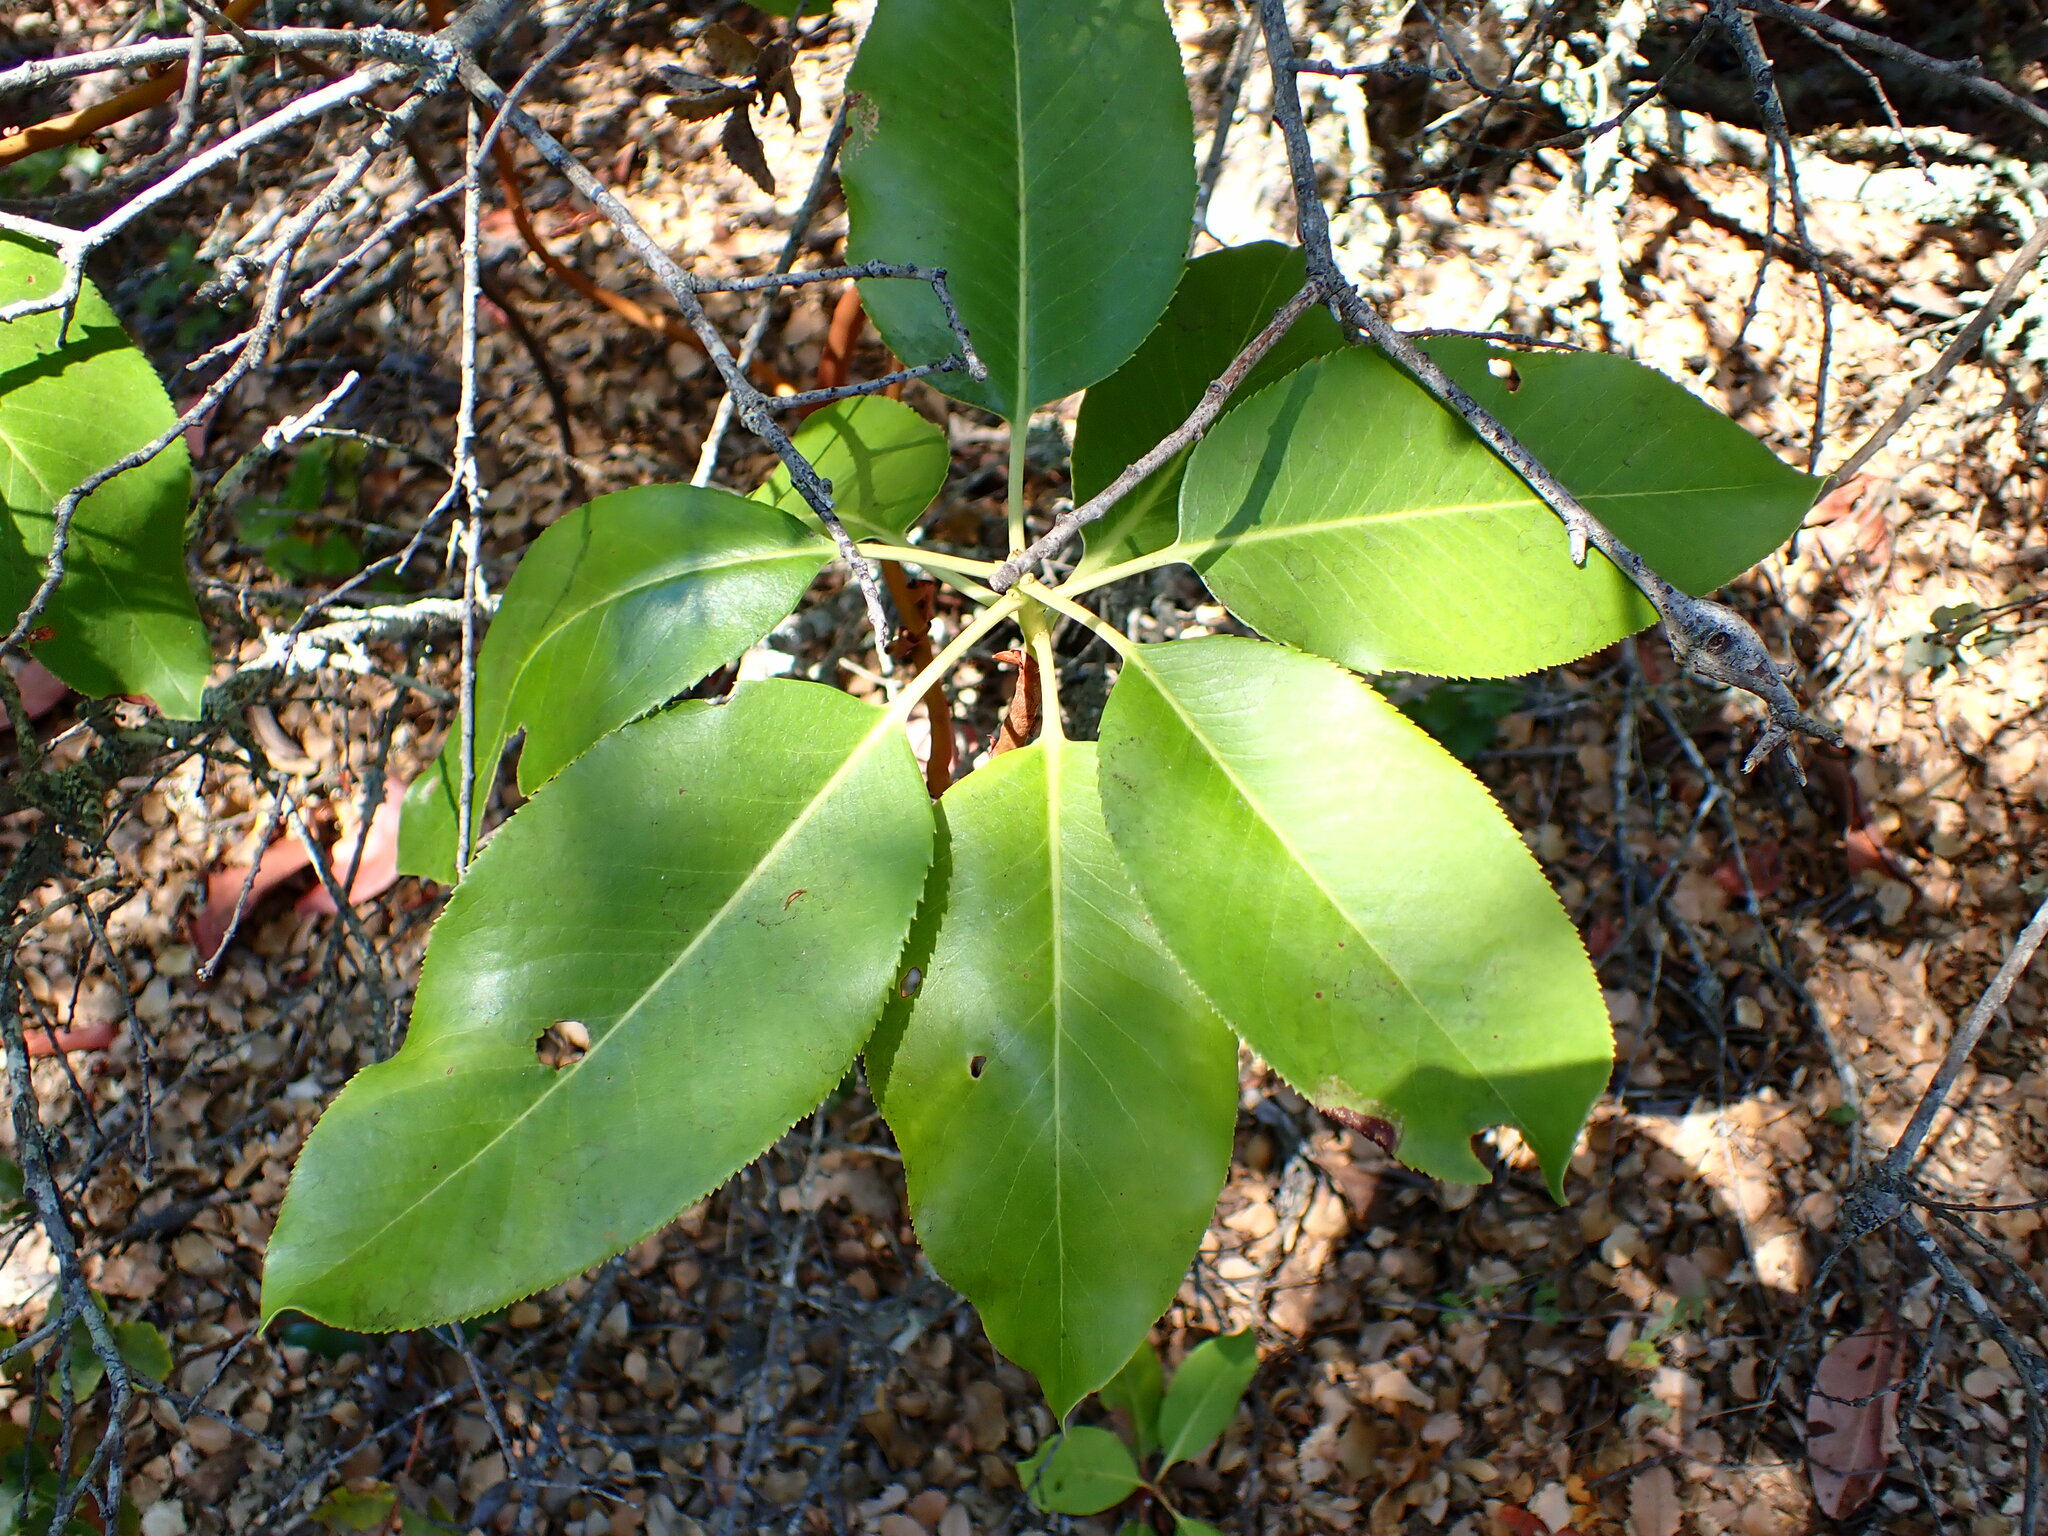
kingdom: Plantae
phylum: Tracheophyta
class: Magnoliopsida
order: Ericales
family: Ericaceae
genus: Arbutus
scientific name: Arbutus menziesii
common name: Pacific madrone
